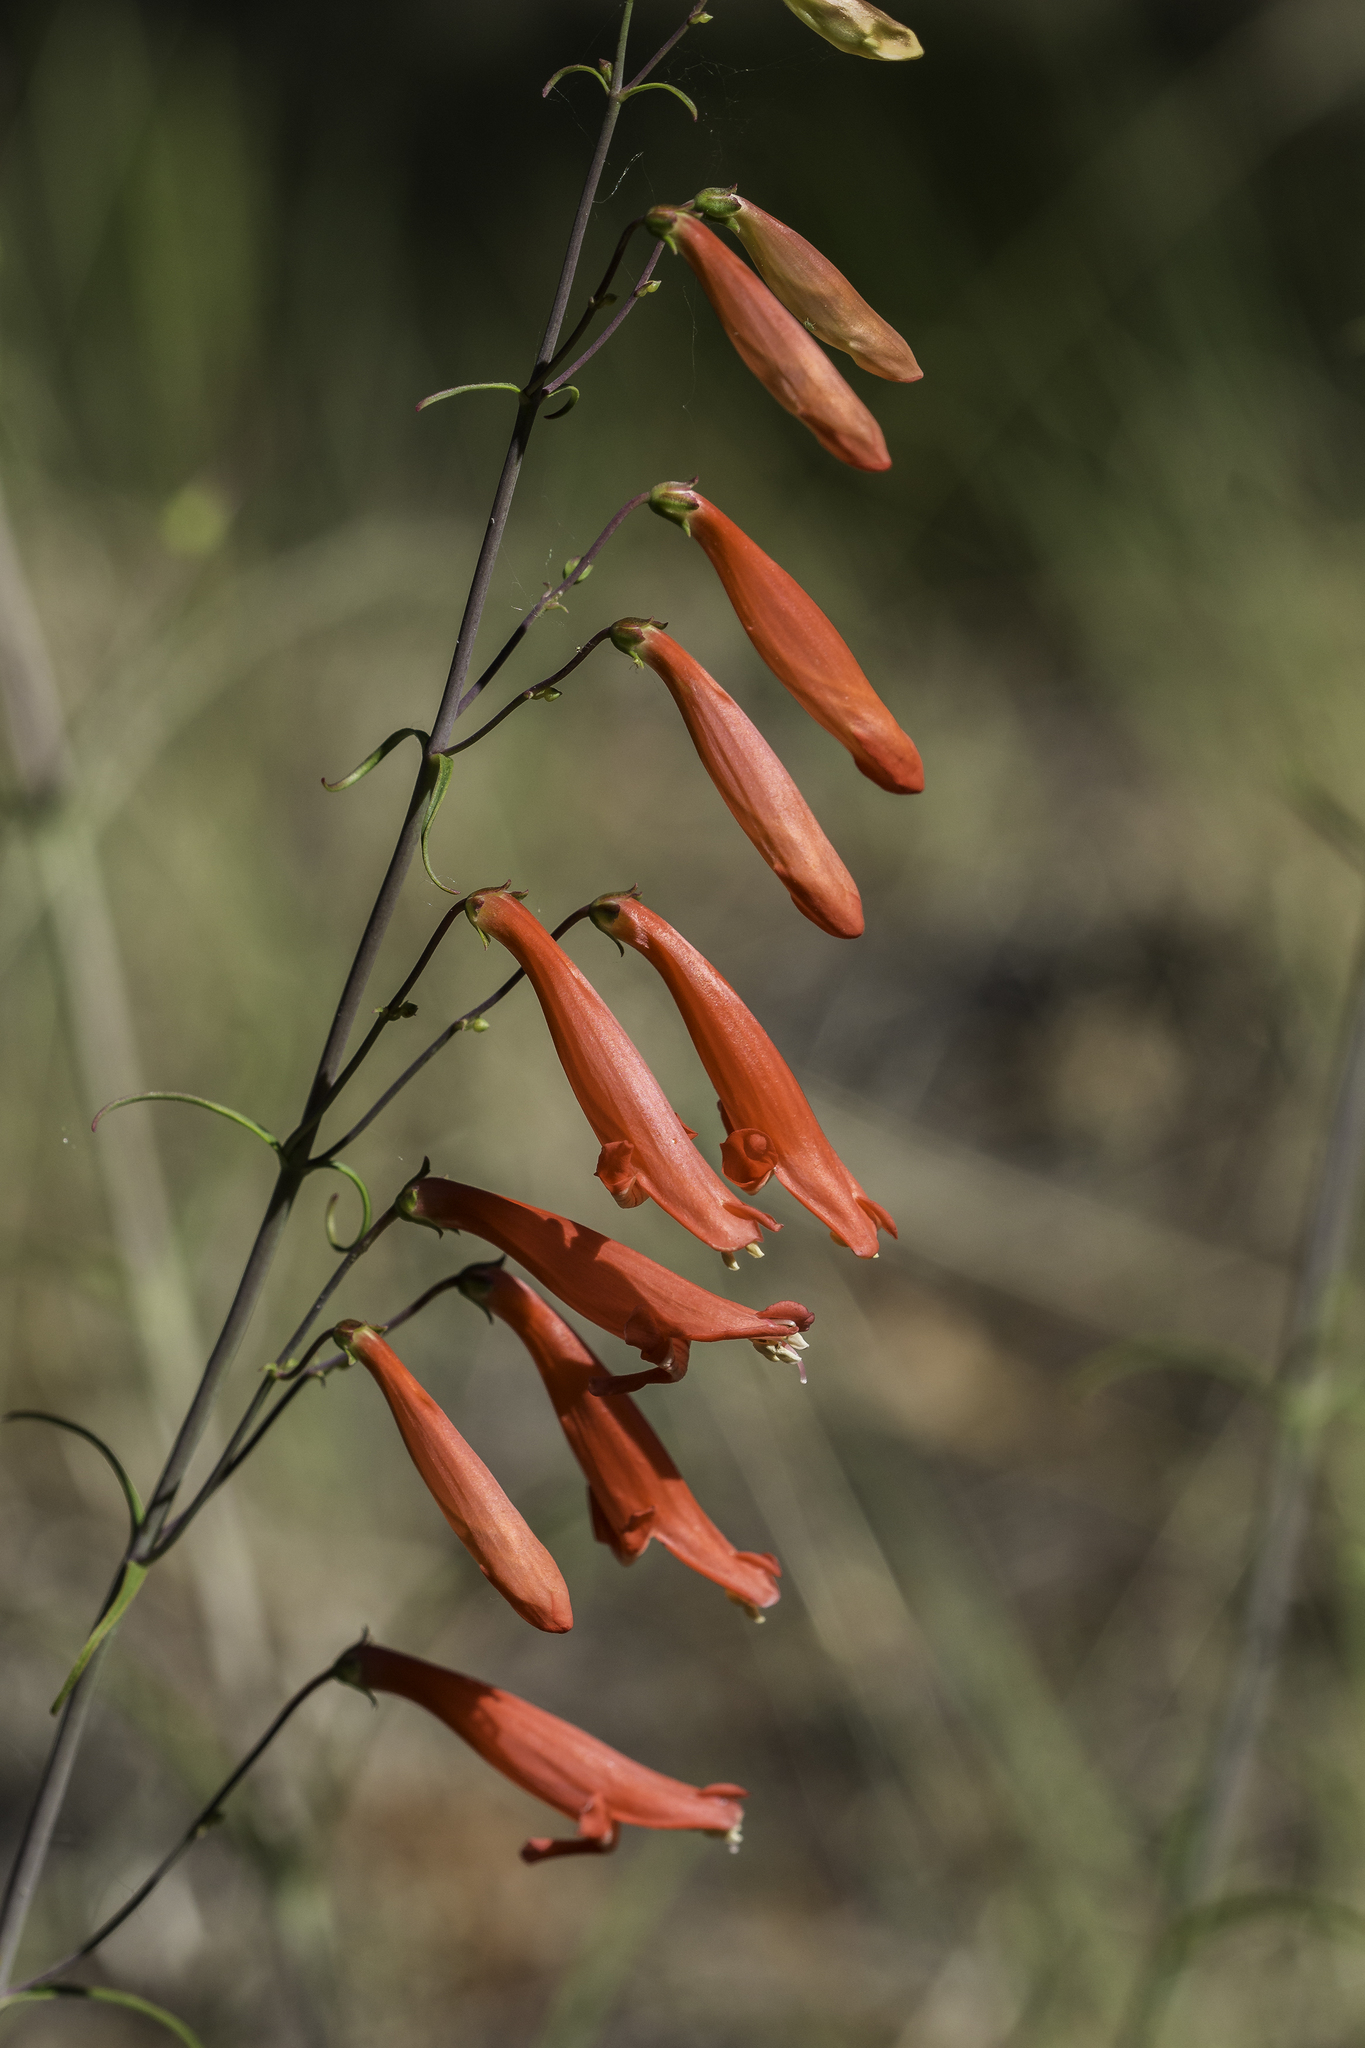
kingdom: Plantae
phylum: Tracheophyta
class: Magnoliopsida
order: Lamiales
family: Plantaginaceae
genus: Penstemon
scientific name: Penstemon barbatus
